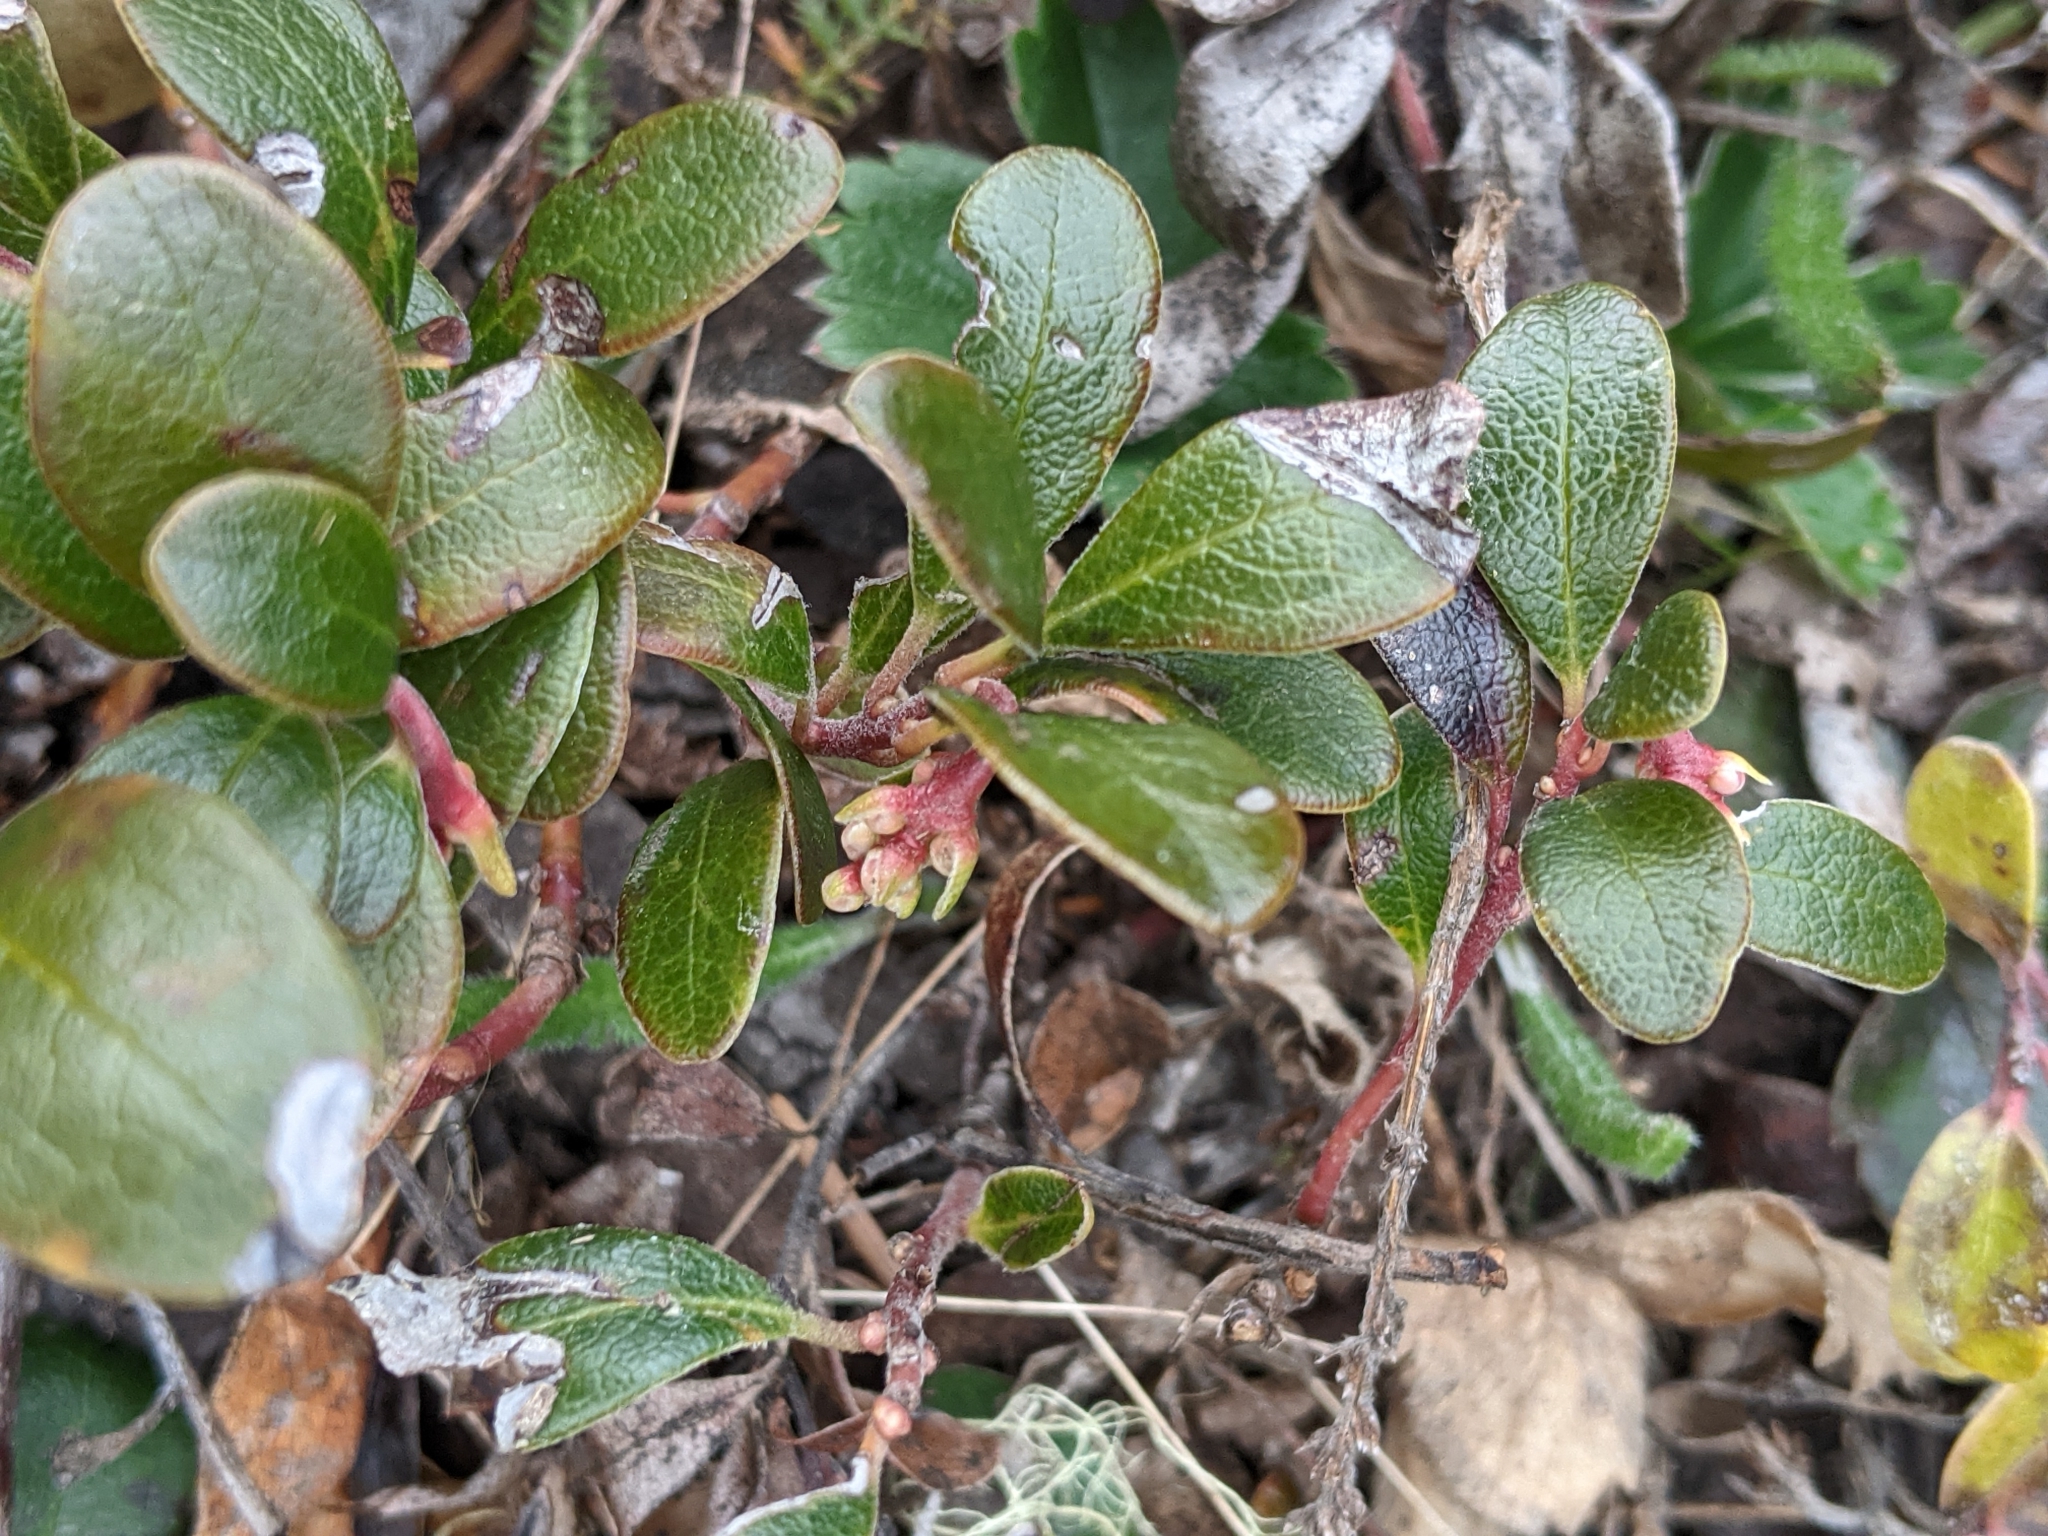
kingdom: Plantae
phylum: Tracheophyta
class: Magnoliopsida
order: Ericales
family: Ericaceae
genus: Arctostaphylos
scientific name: Arctostaphylos uva-ursi
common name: Bearberry
